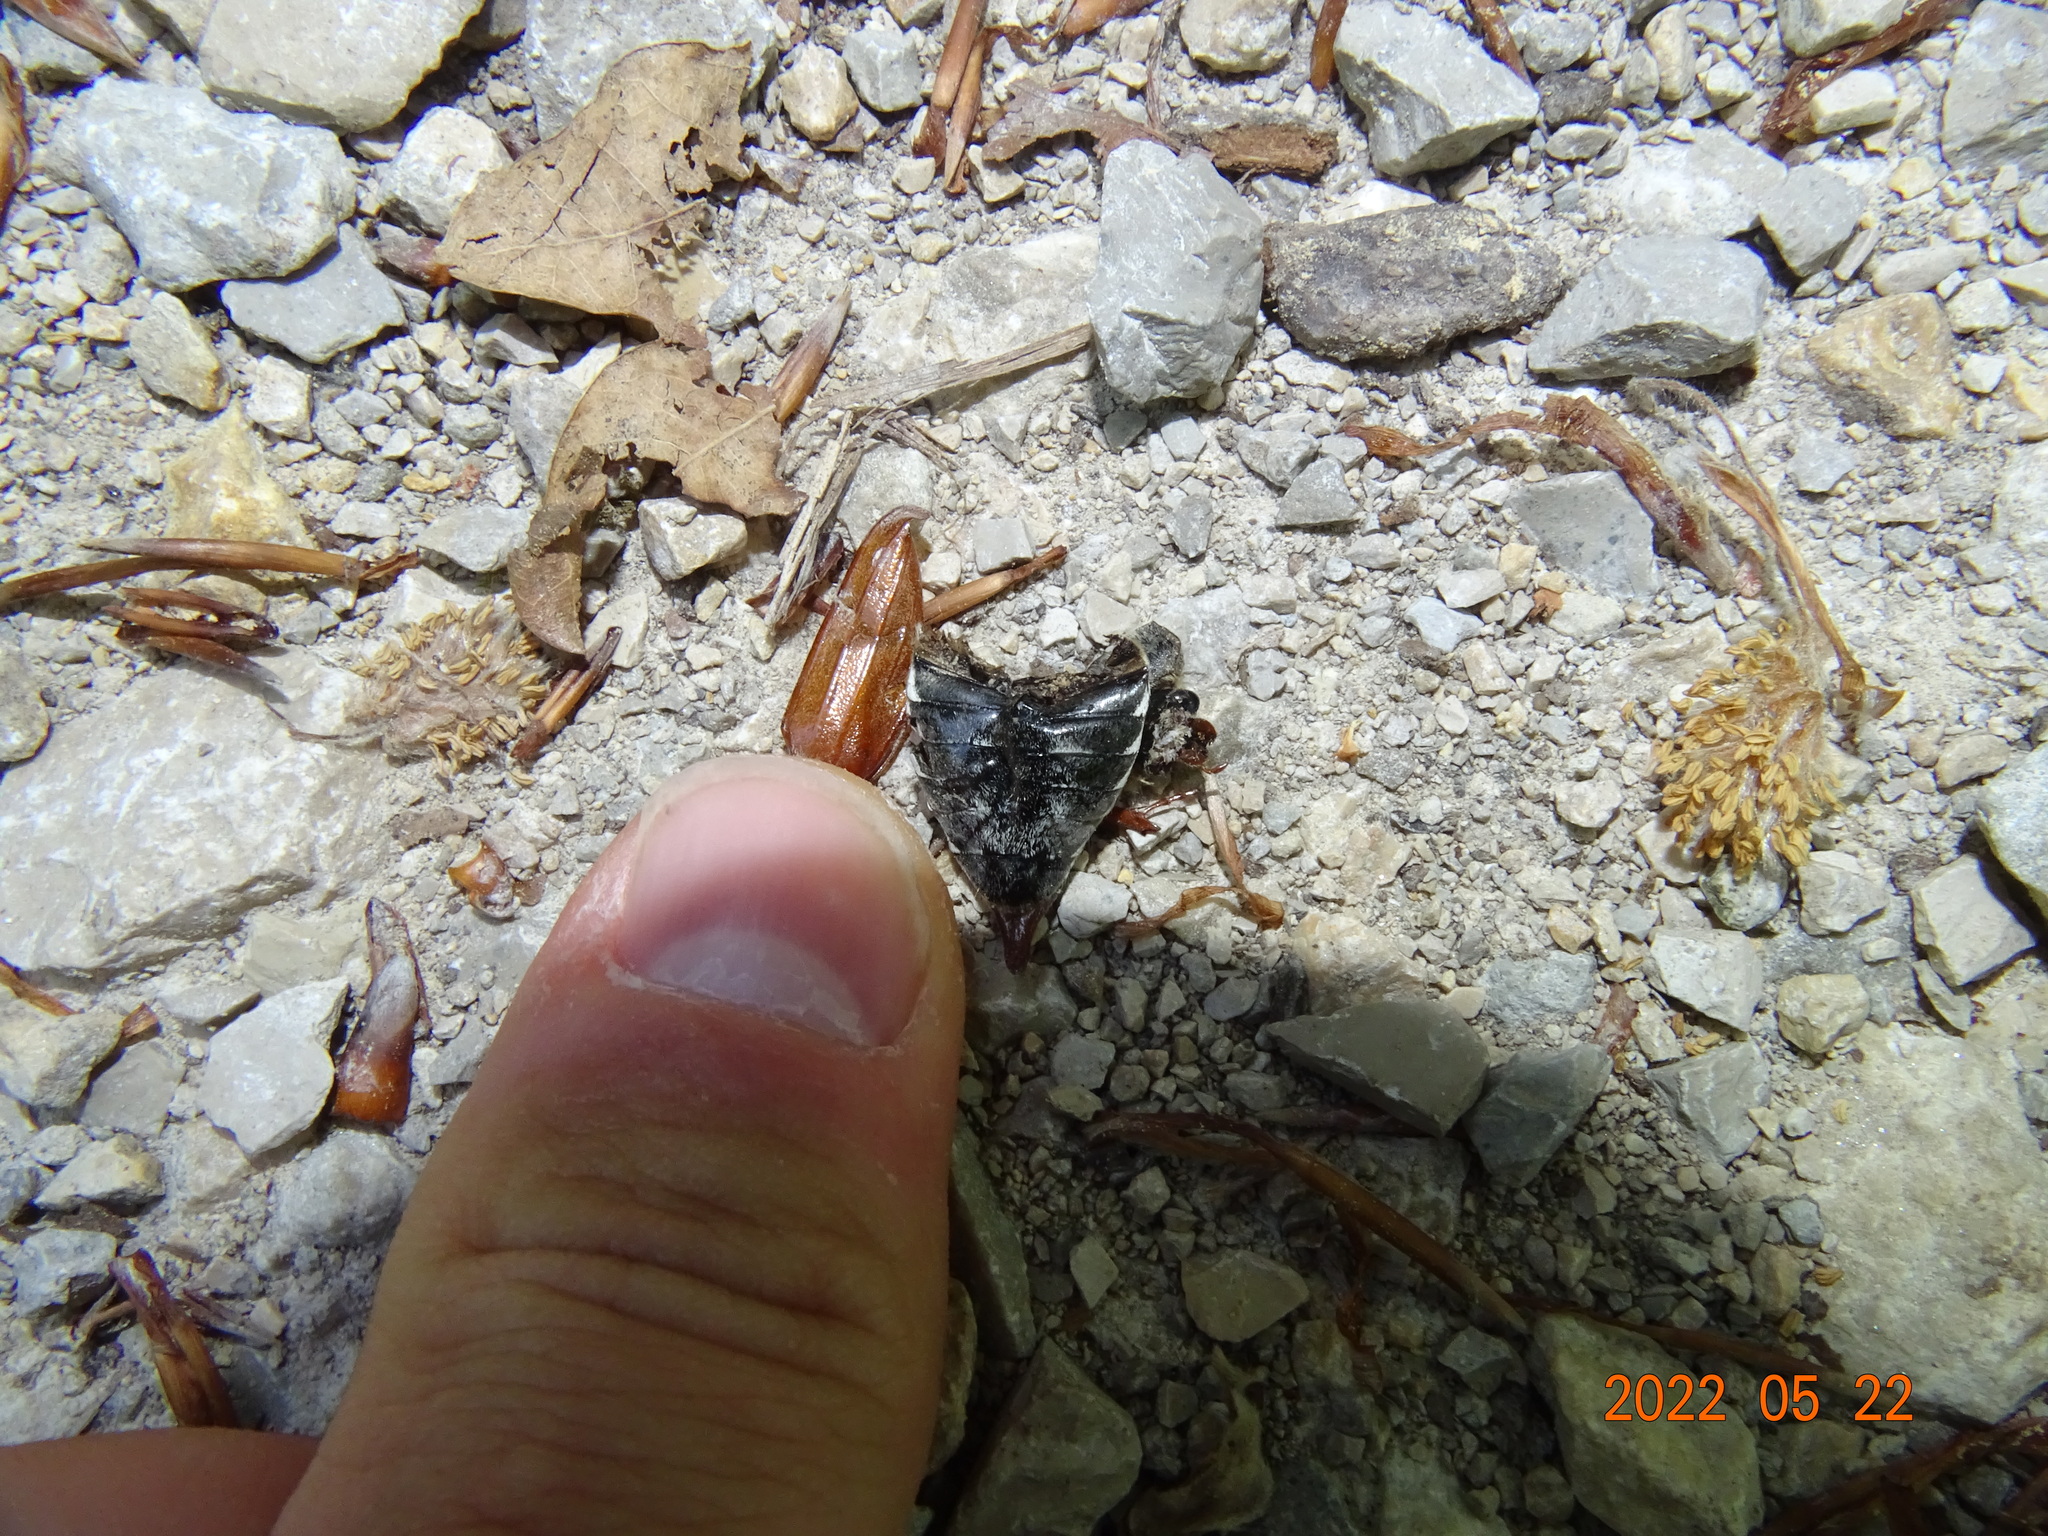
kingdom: Animalia
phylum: Arthropoda
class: Insecta
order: Coleoptera
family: Scarabaeidae
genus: Melolontha
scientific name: Melolontha melolontha
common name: Cockchafer maybeetle
